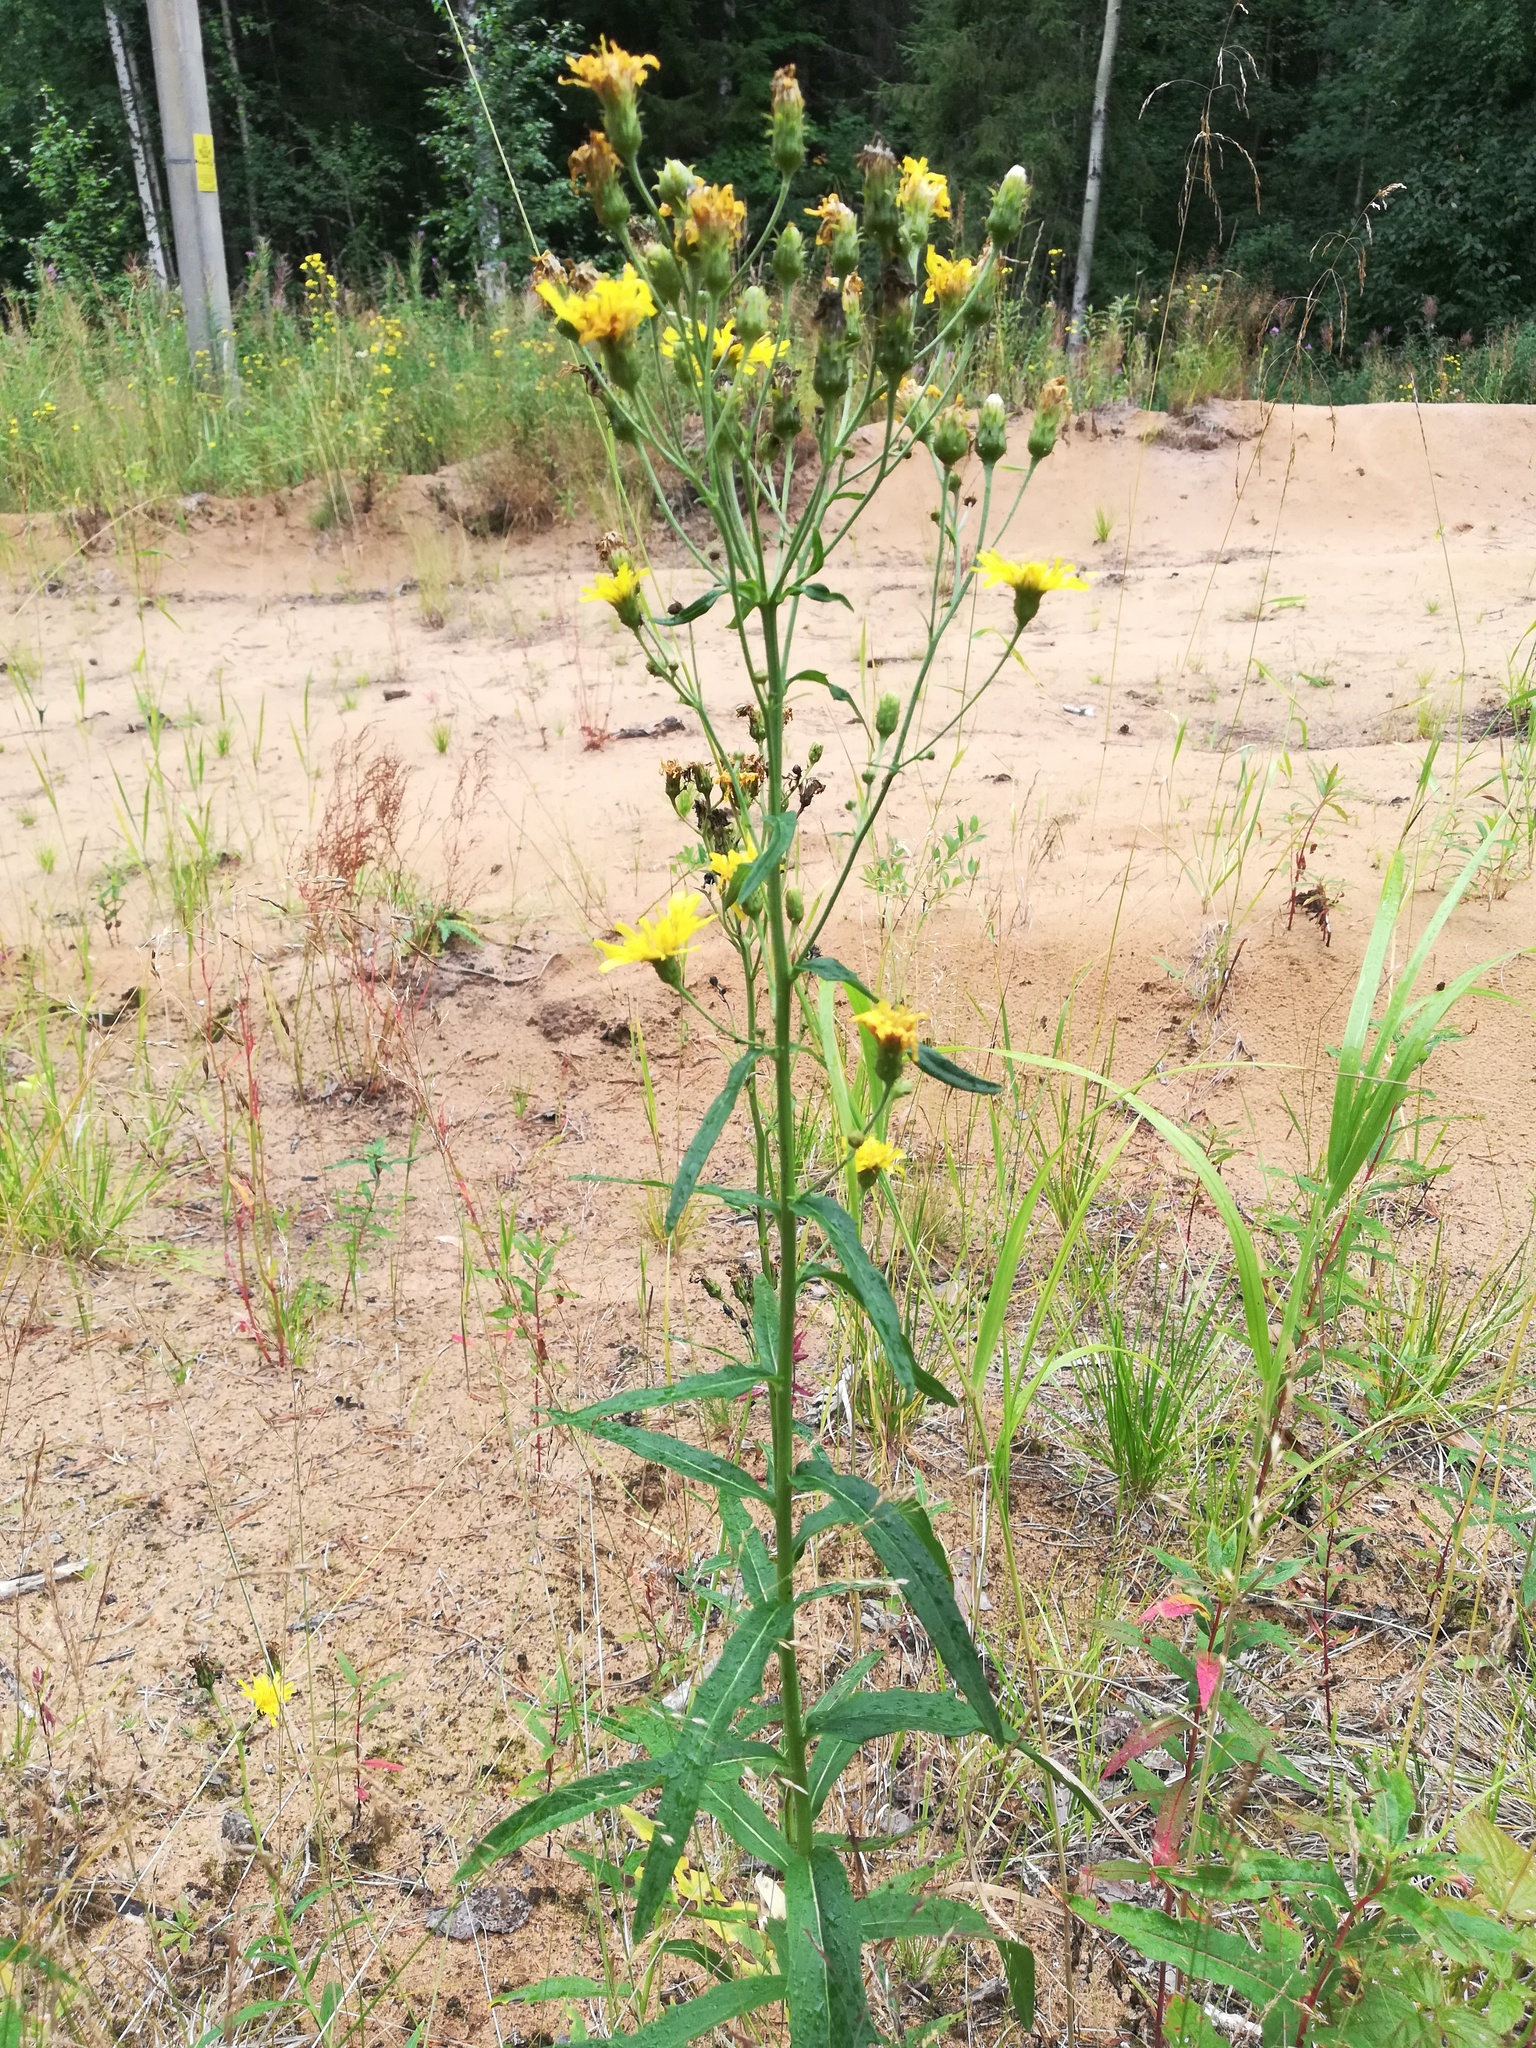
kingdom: Plantae
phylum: Tracheophyta
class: Magnoliopsida
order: Asterales
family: Asteraceae
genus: Hieracium
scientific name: Hieracium umbellatum
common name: Northern hawkweed
